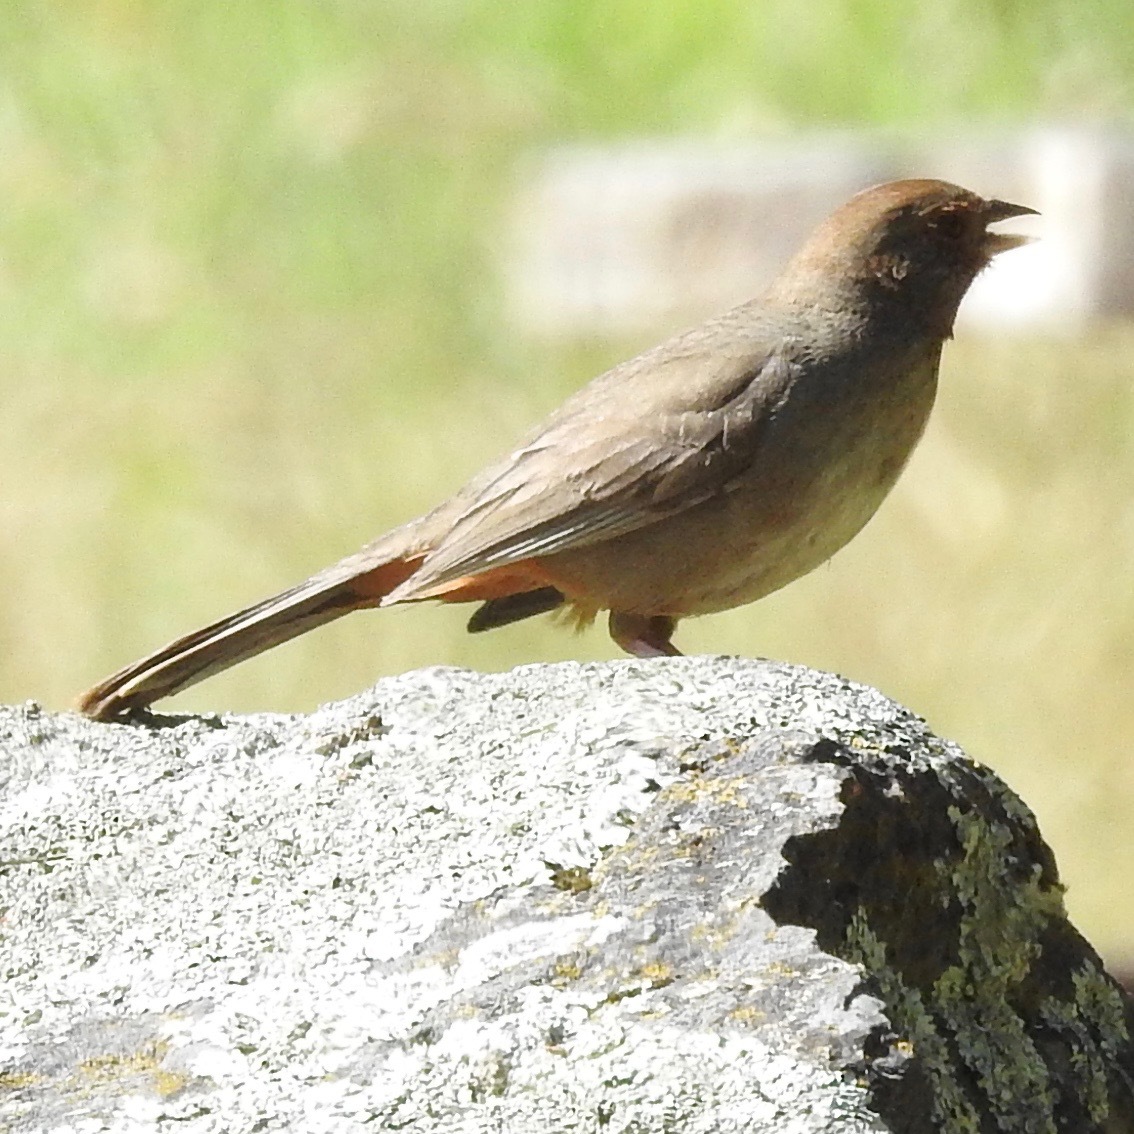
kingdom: Animalia
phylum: Chordata
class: Aves
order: Passeriformes
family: Passerellidae
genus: Melozone
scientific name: Melozone crissalis
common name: California towhee
